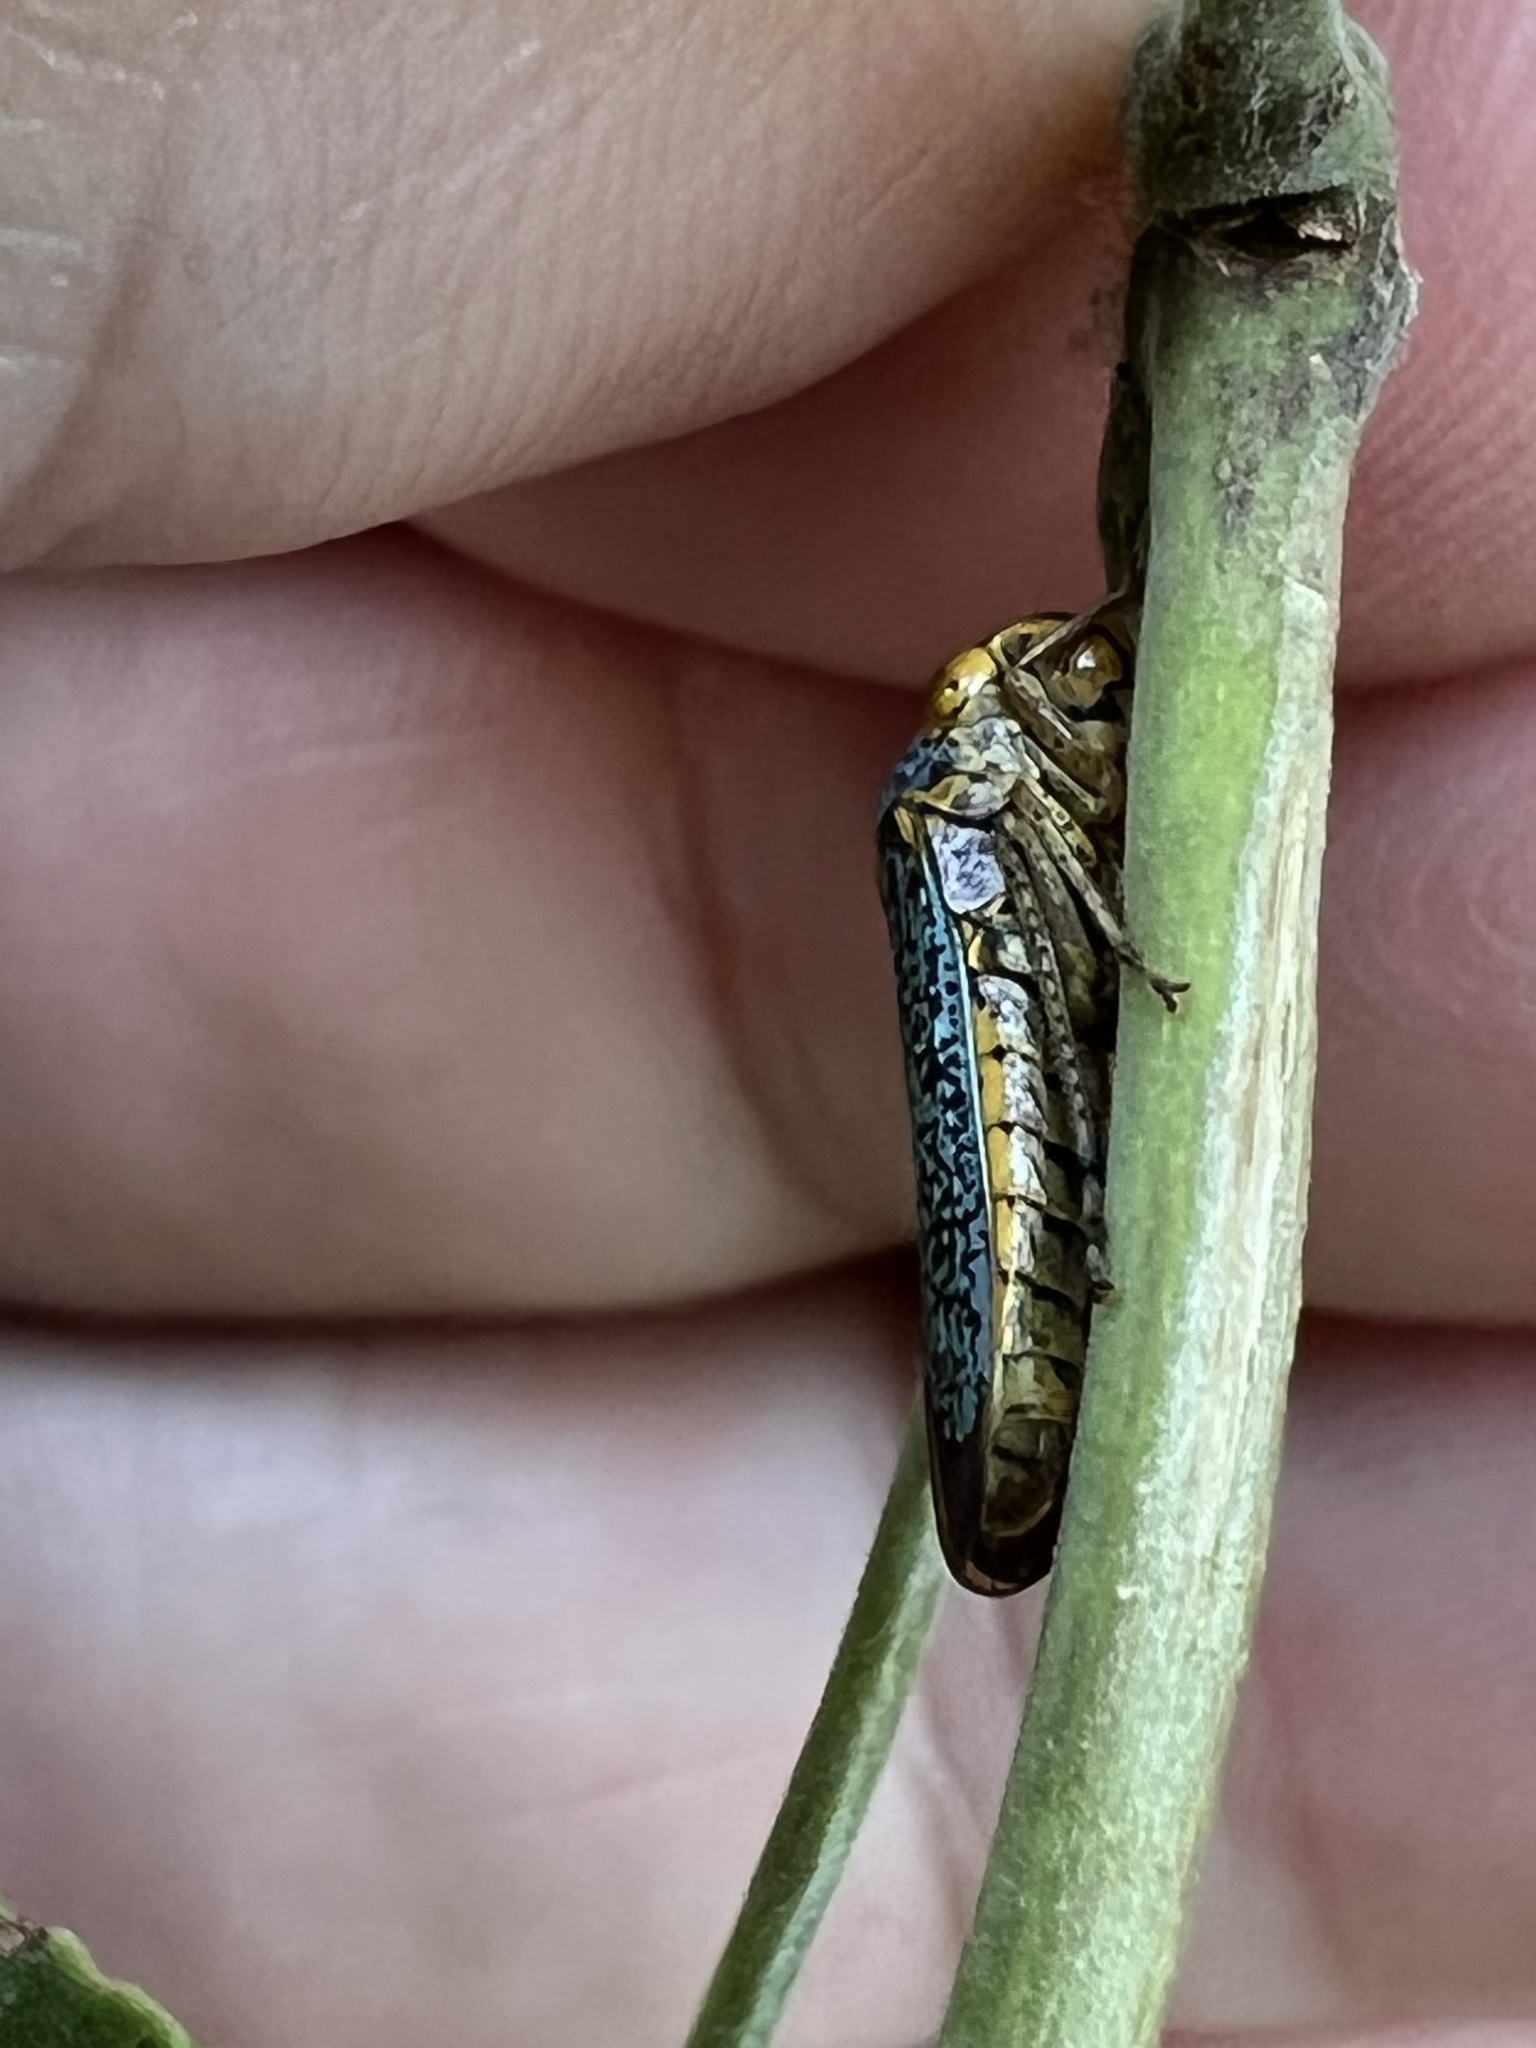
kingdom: Animalia
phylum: Arthropoda
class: Insecta
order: Hemiptera
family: Cicadellidae
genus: Oncometopia
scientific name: Oncometopia orbona
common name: Broad-headed sharpshooter
